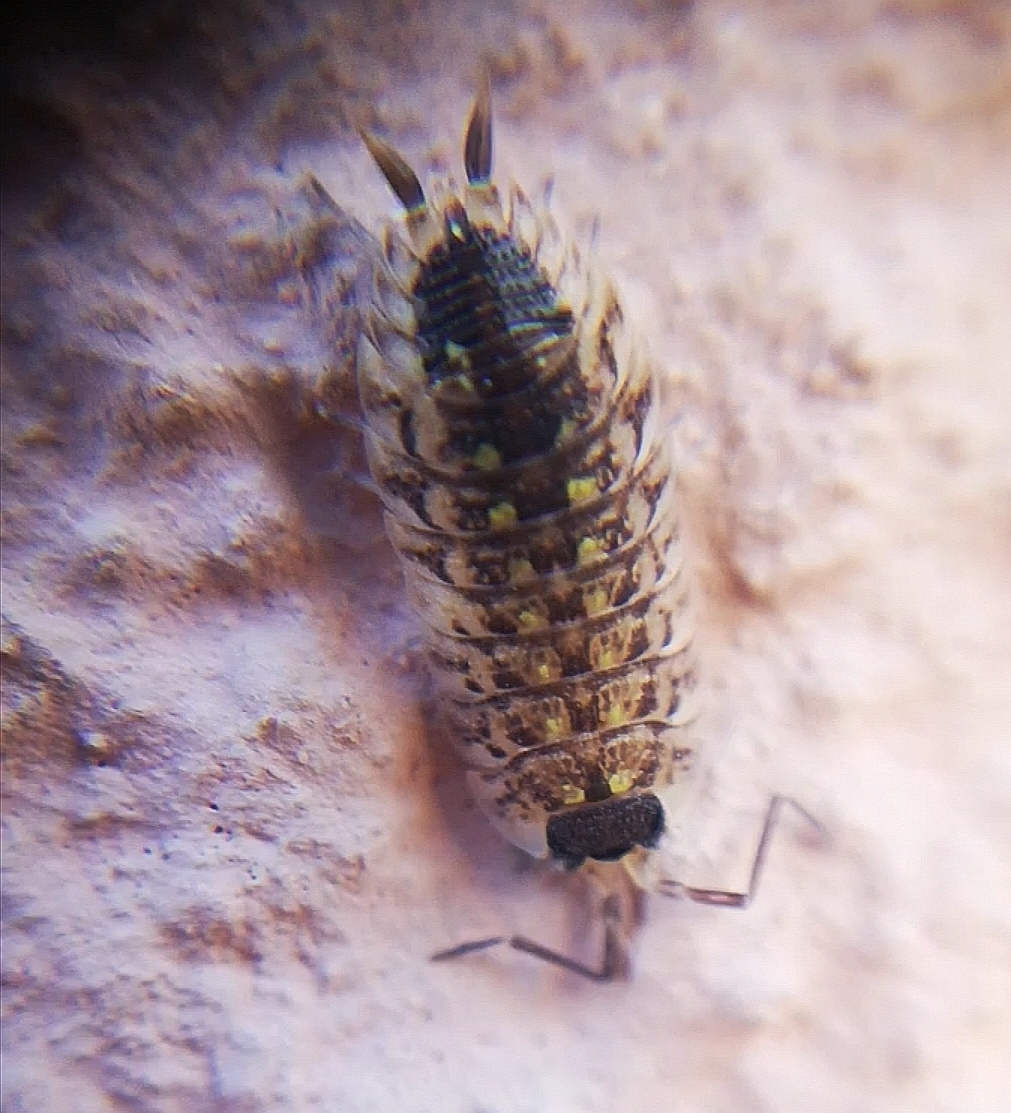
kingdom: Animalia
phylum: Arthropoda
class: Malacostraca
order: Isopoda
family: Porcellionidae
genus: Porcellio
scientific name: Porcellio spinicornis
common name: Painted woodlouse
